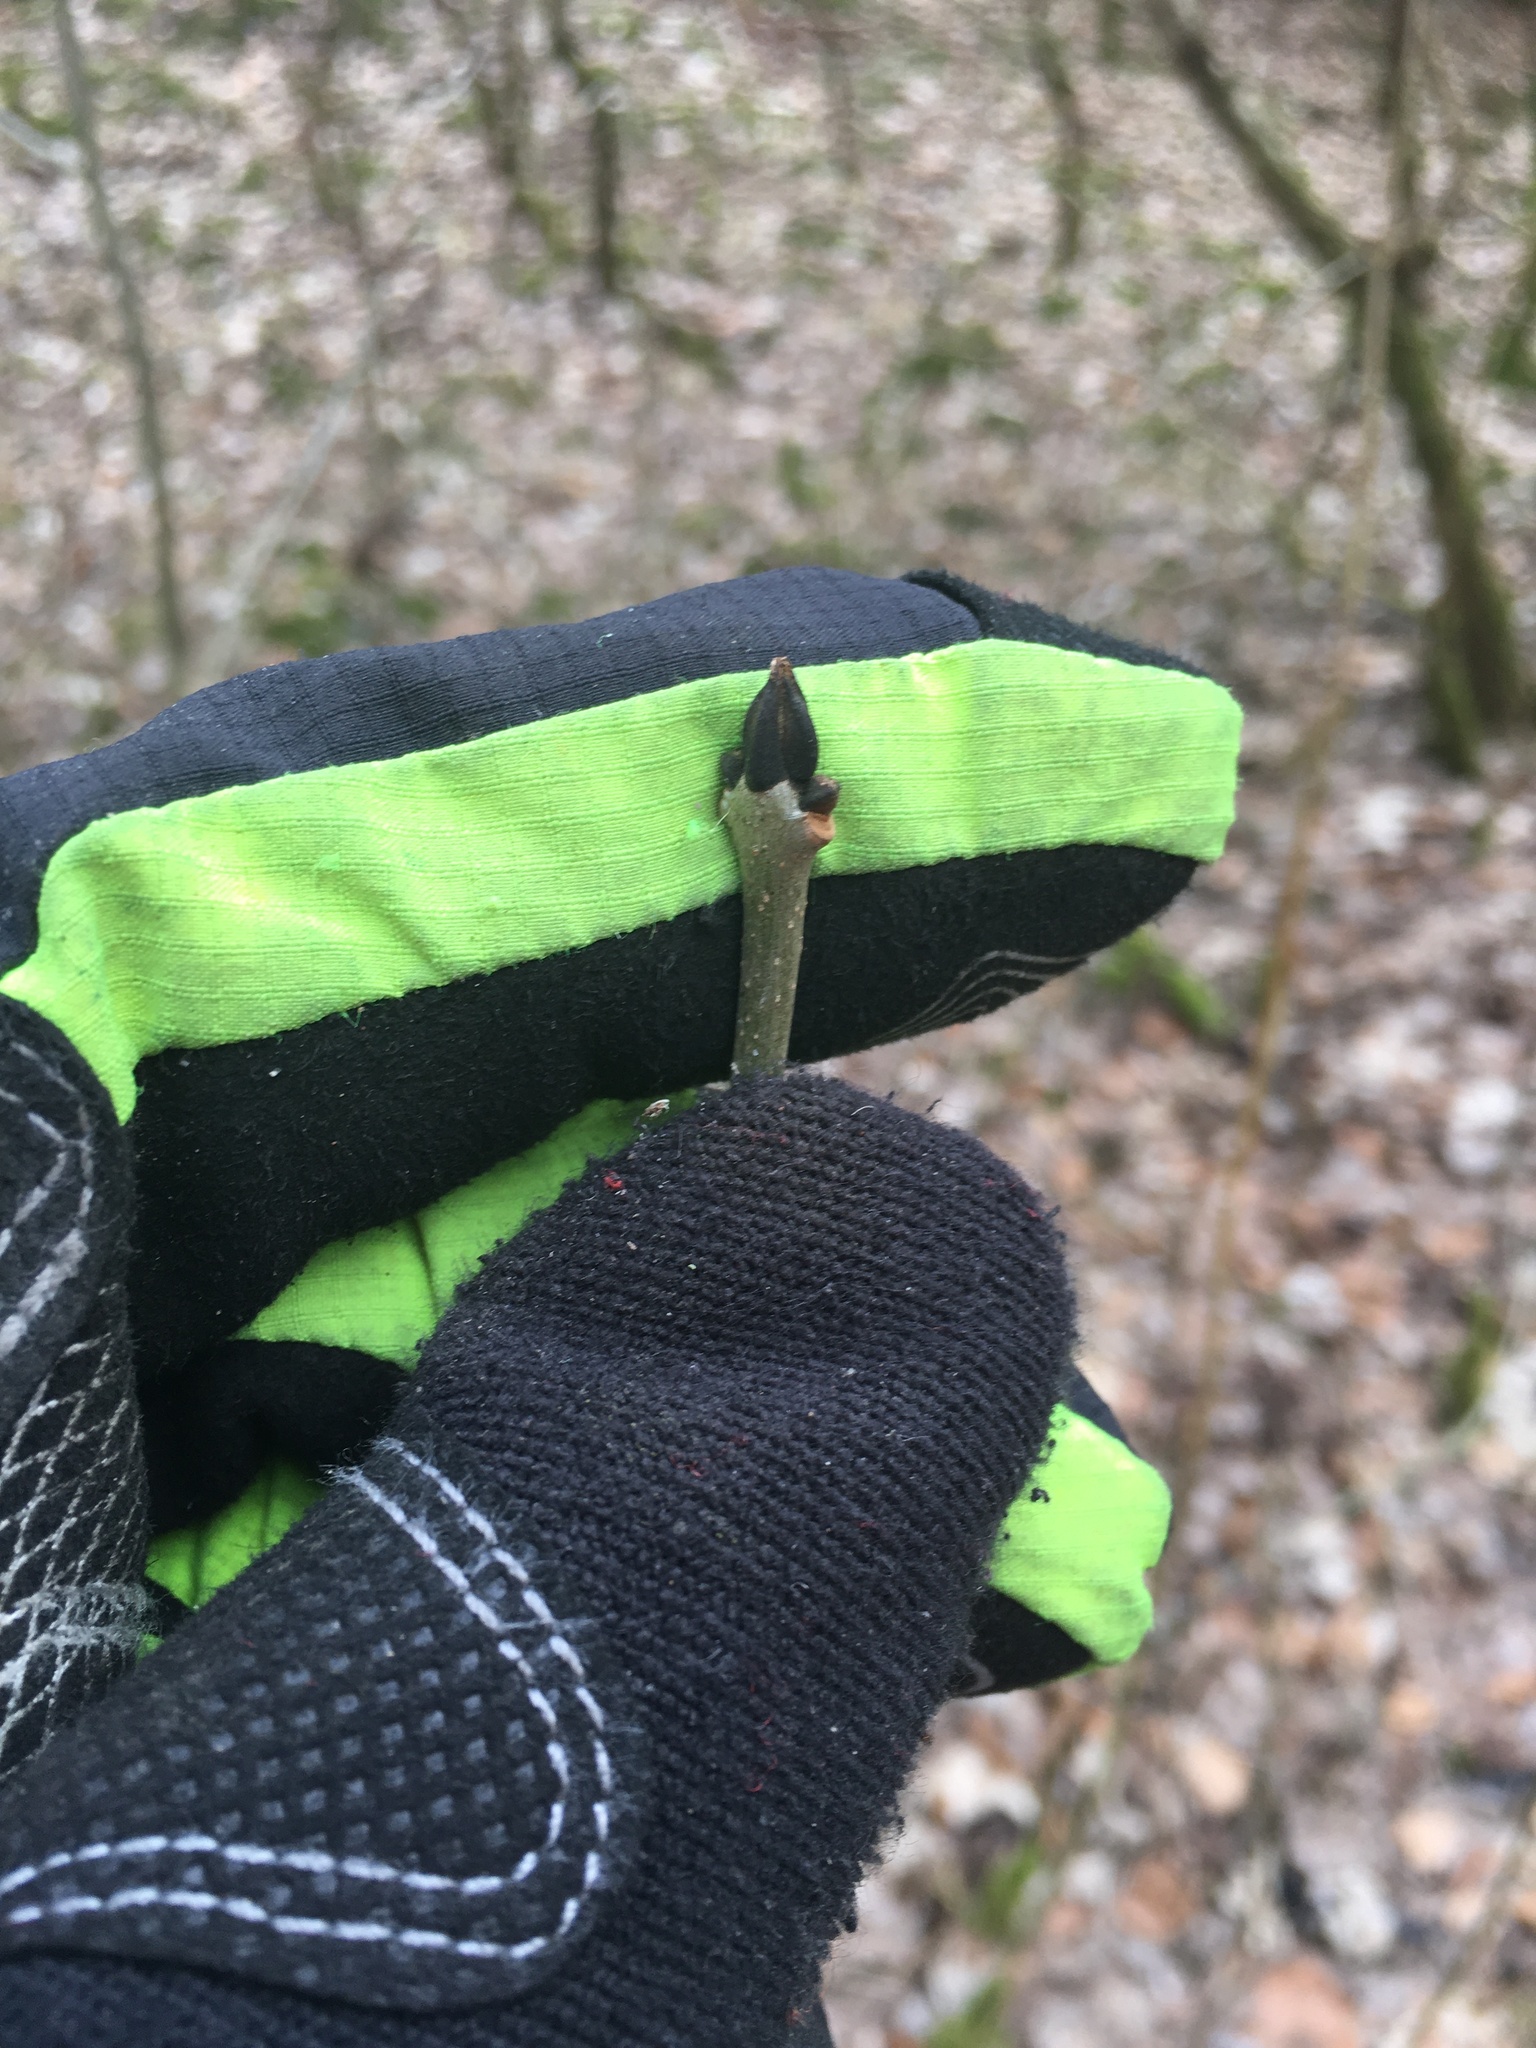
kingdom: Plantae
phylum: Tracheophyta
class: Magnoliopsida
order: Lamiales
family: Oleaceae
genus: Fraxinus
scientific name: Fraxinus excelsior
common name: European ash
